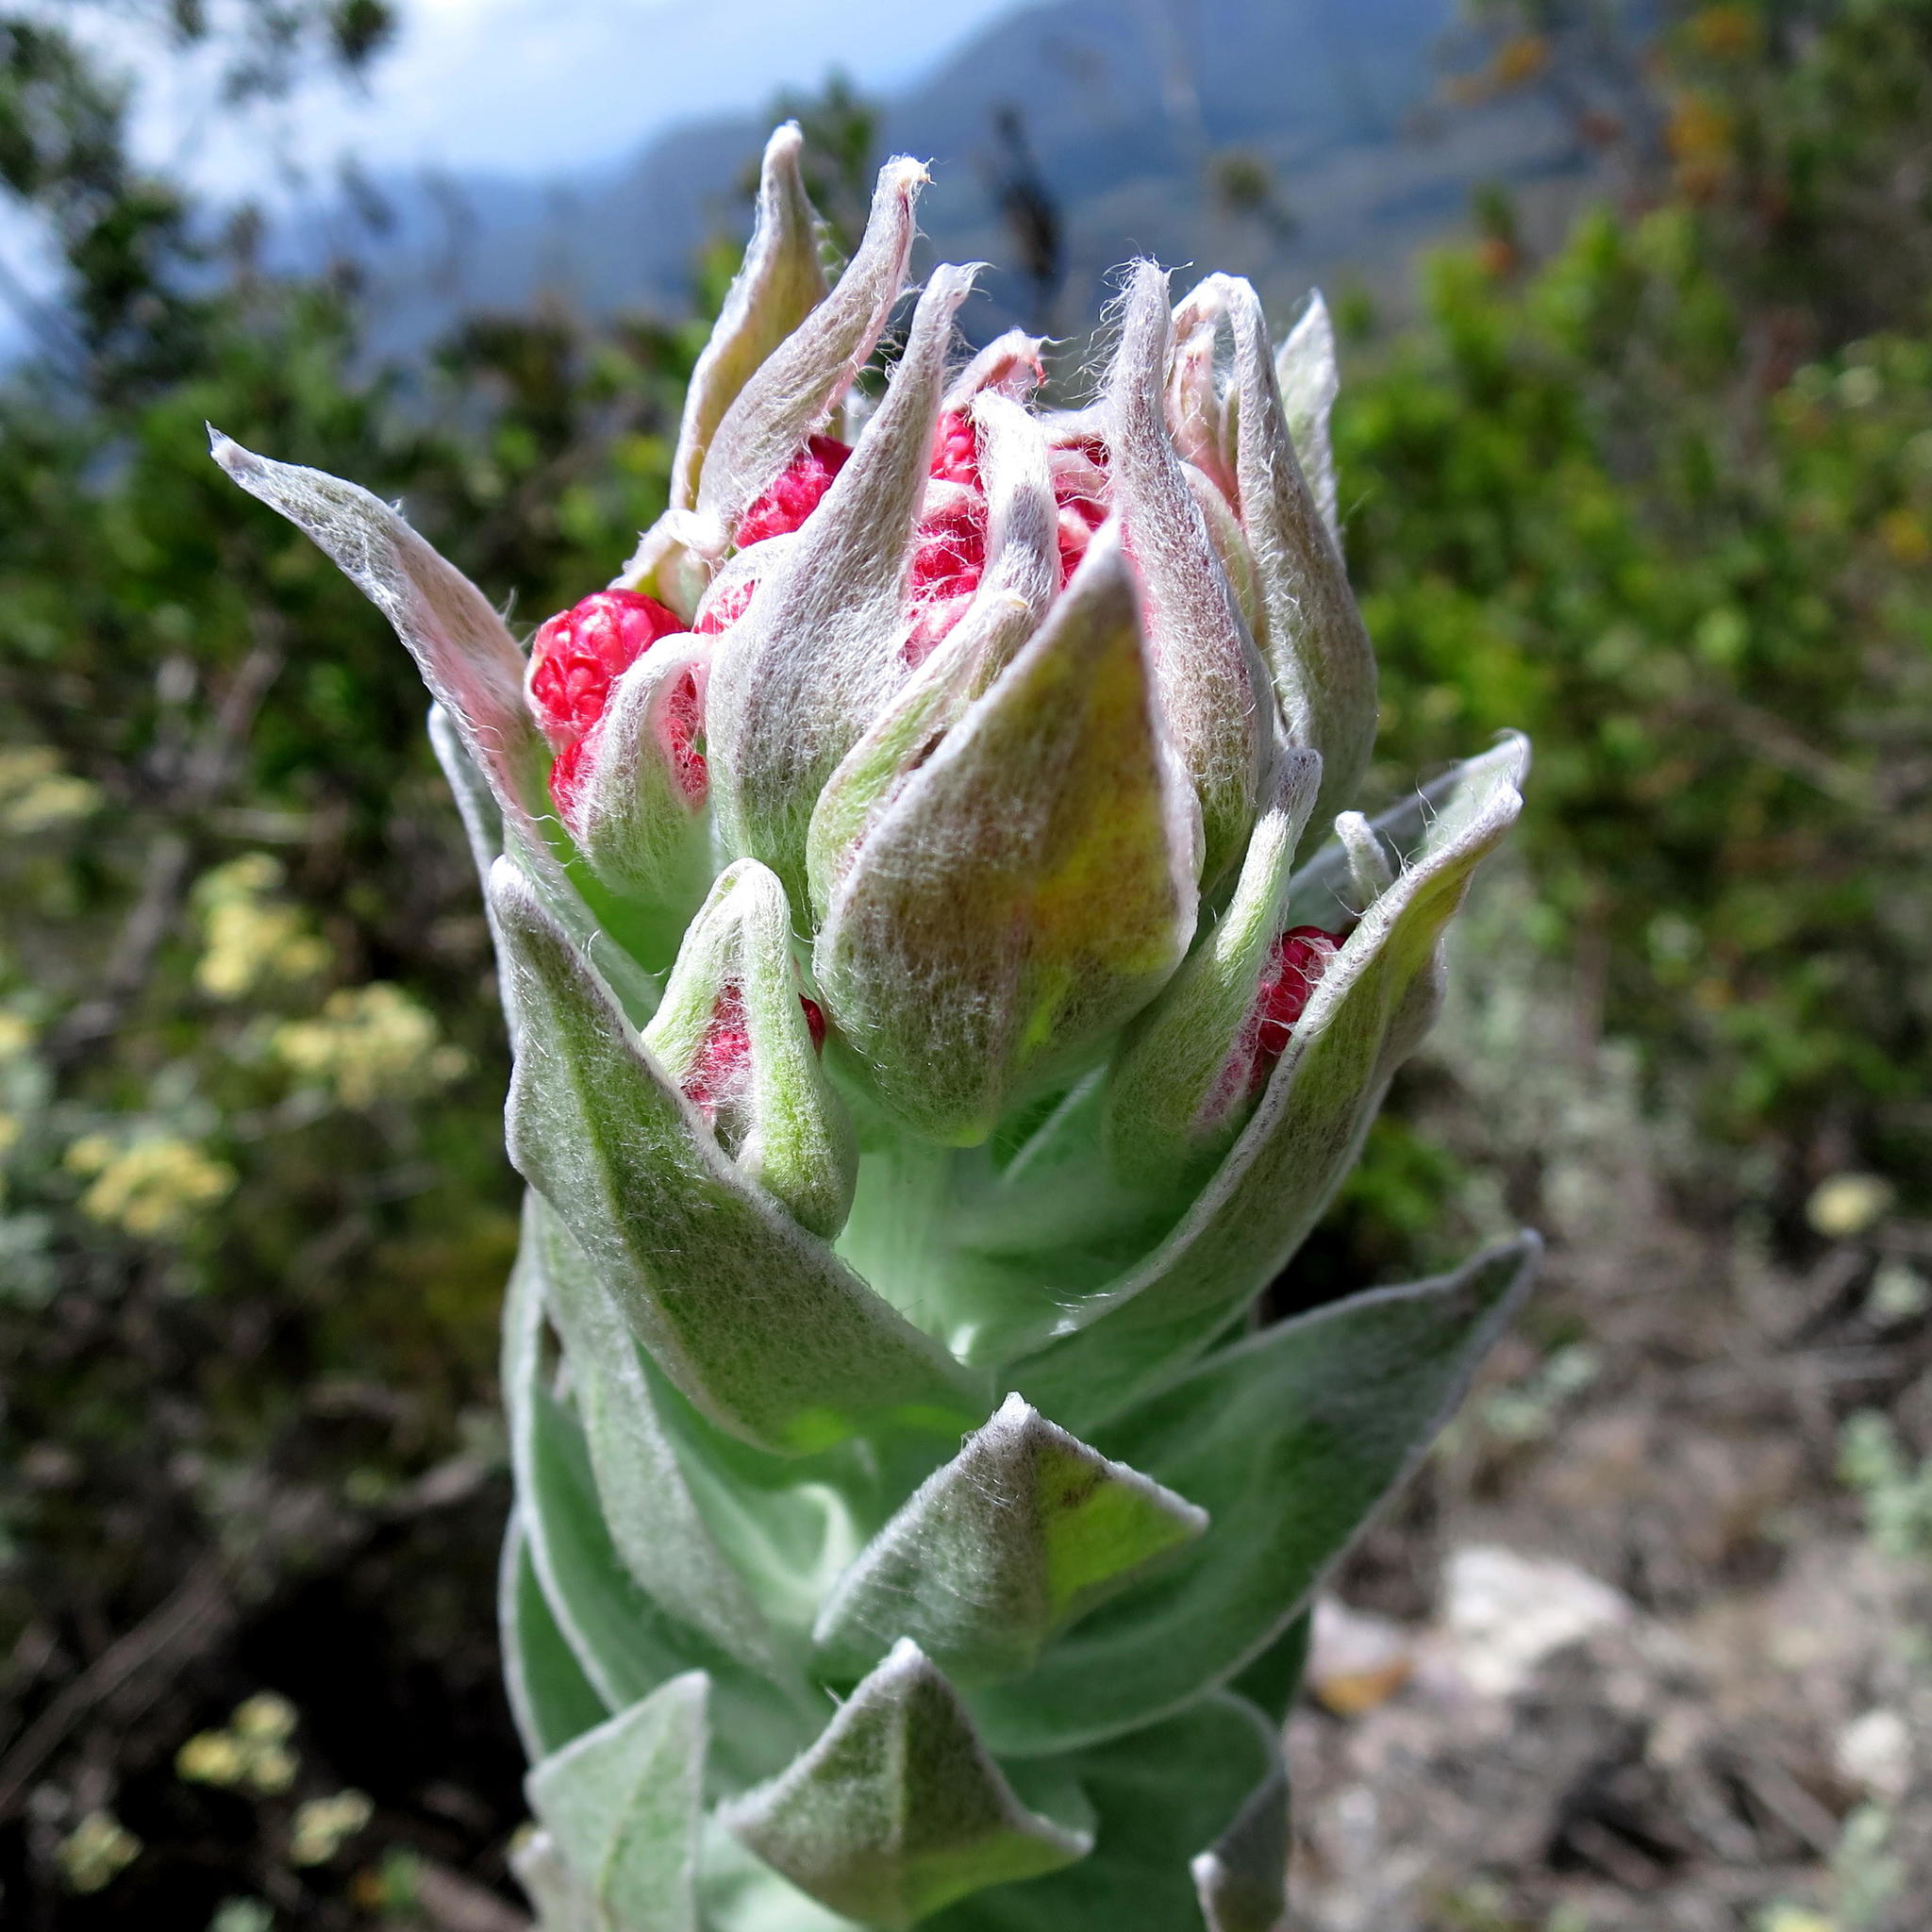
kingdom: Plantae
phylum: Tracheophyta
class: Magnoliopsida
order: Asterales
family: Asteraceae
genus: Syncarpha
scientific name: Syncarpha eximia
